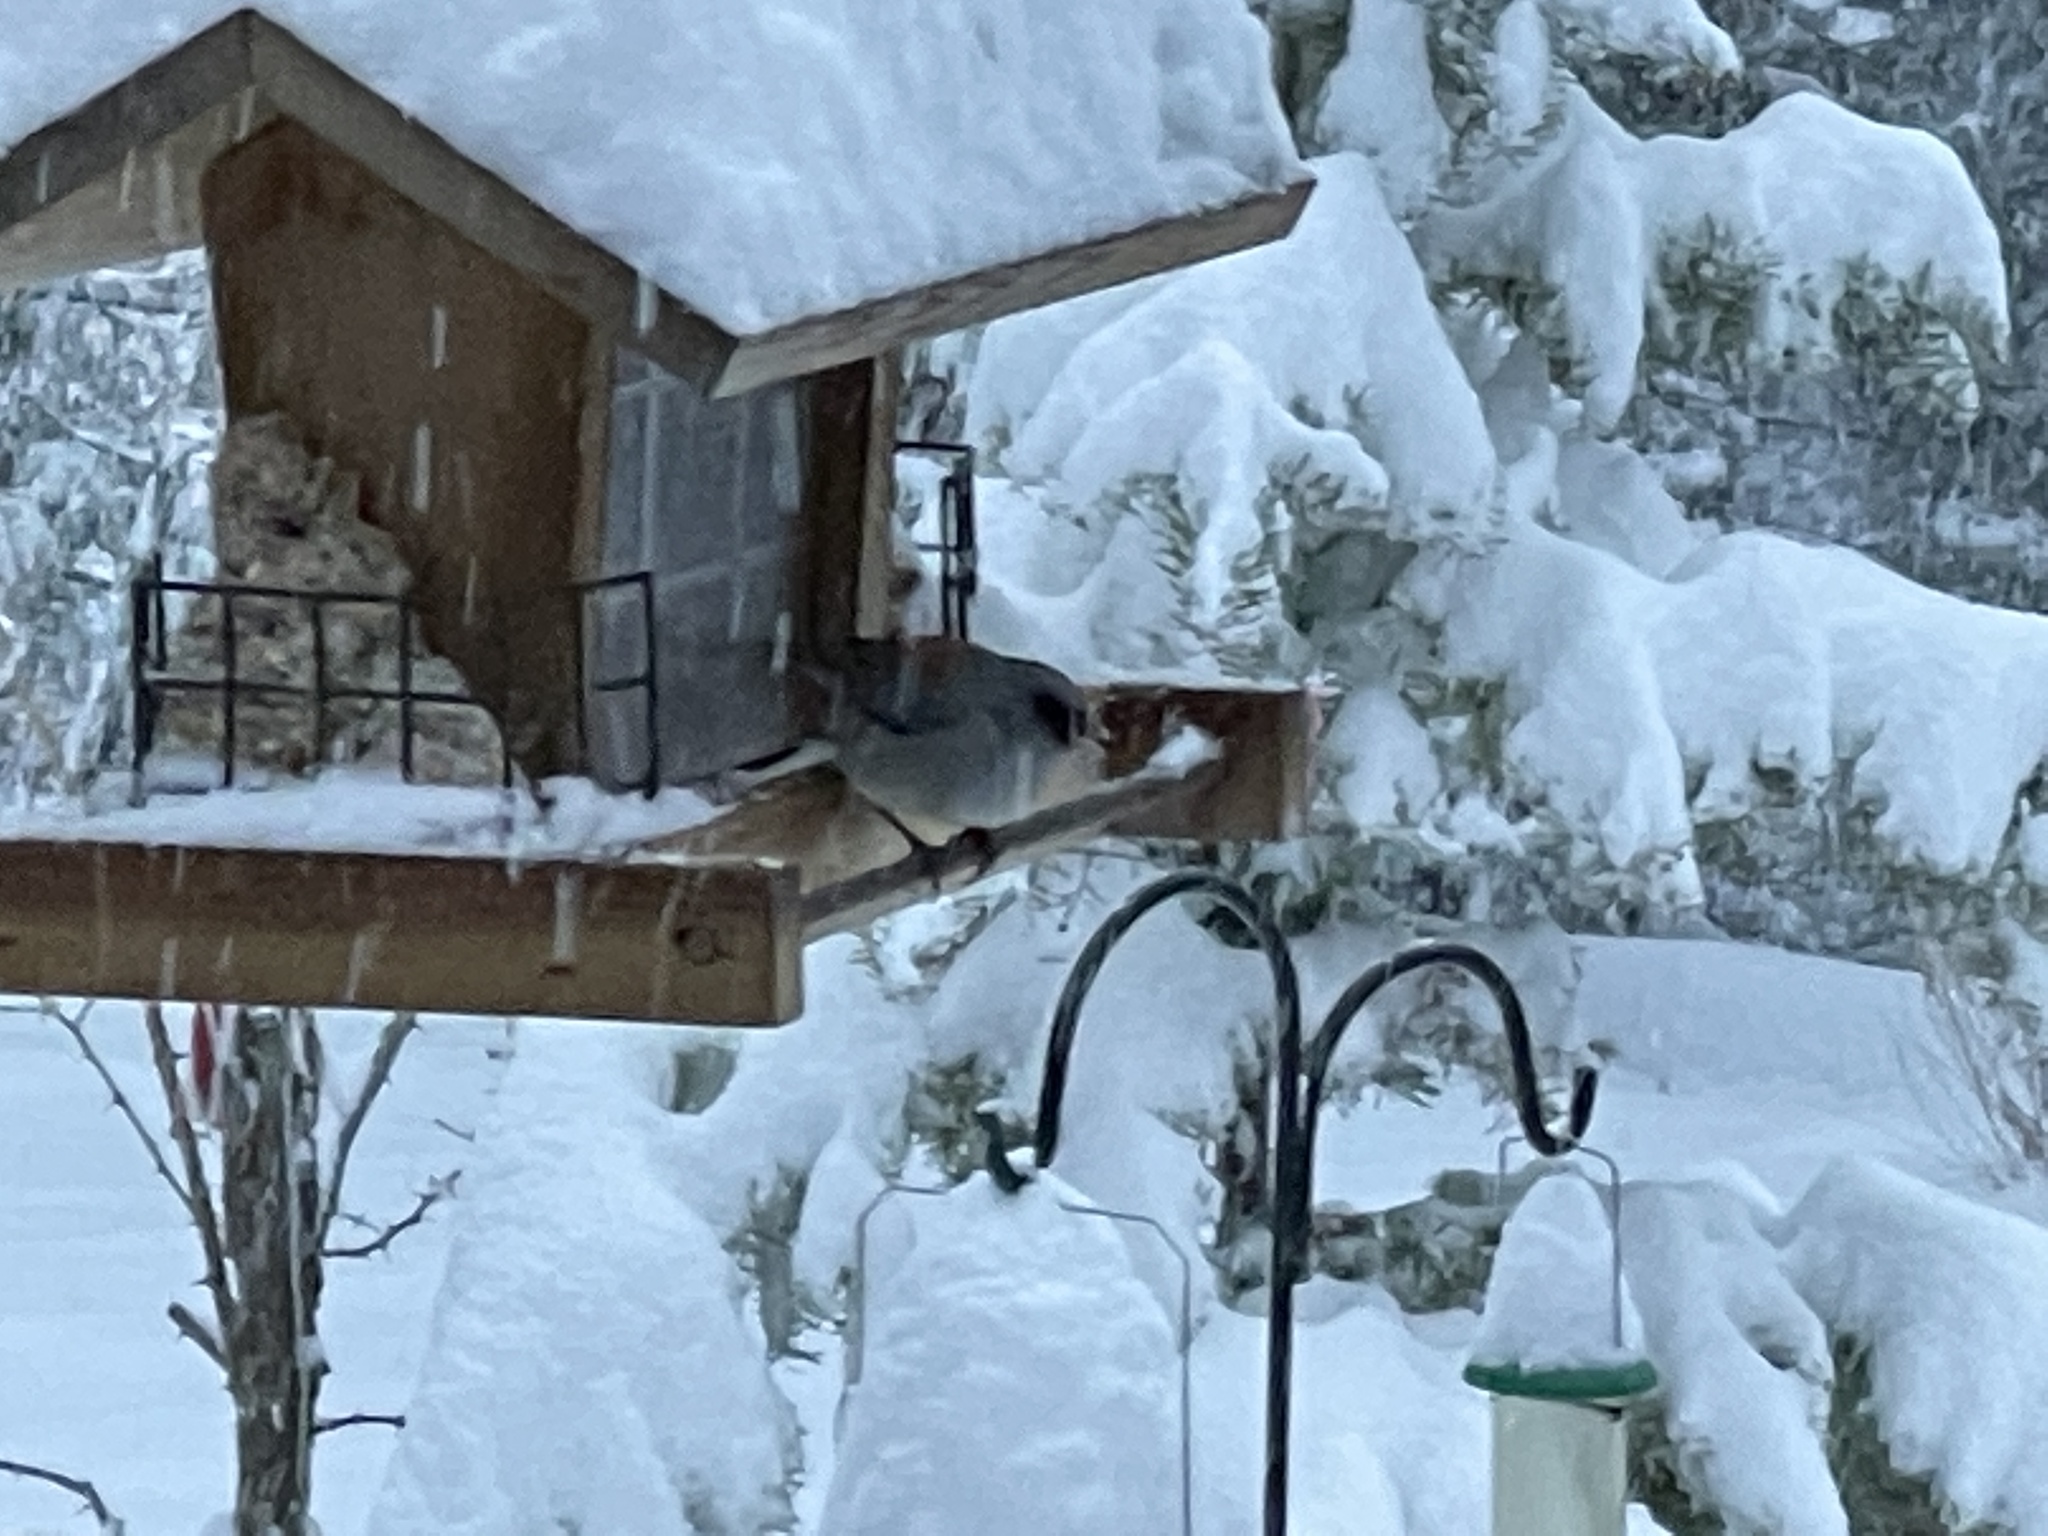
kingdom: Animalia
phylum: Chordata
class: Aves
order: Passeriformes
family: Passerellidae
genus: Junco
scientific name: Junco hyemalis
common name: Dark-eyed junco
